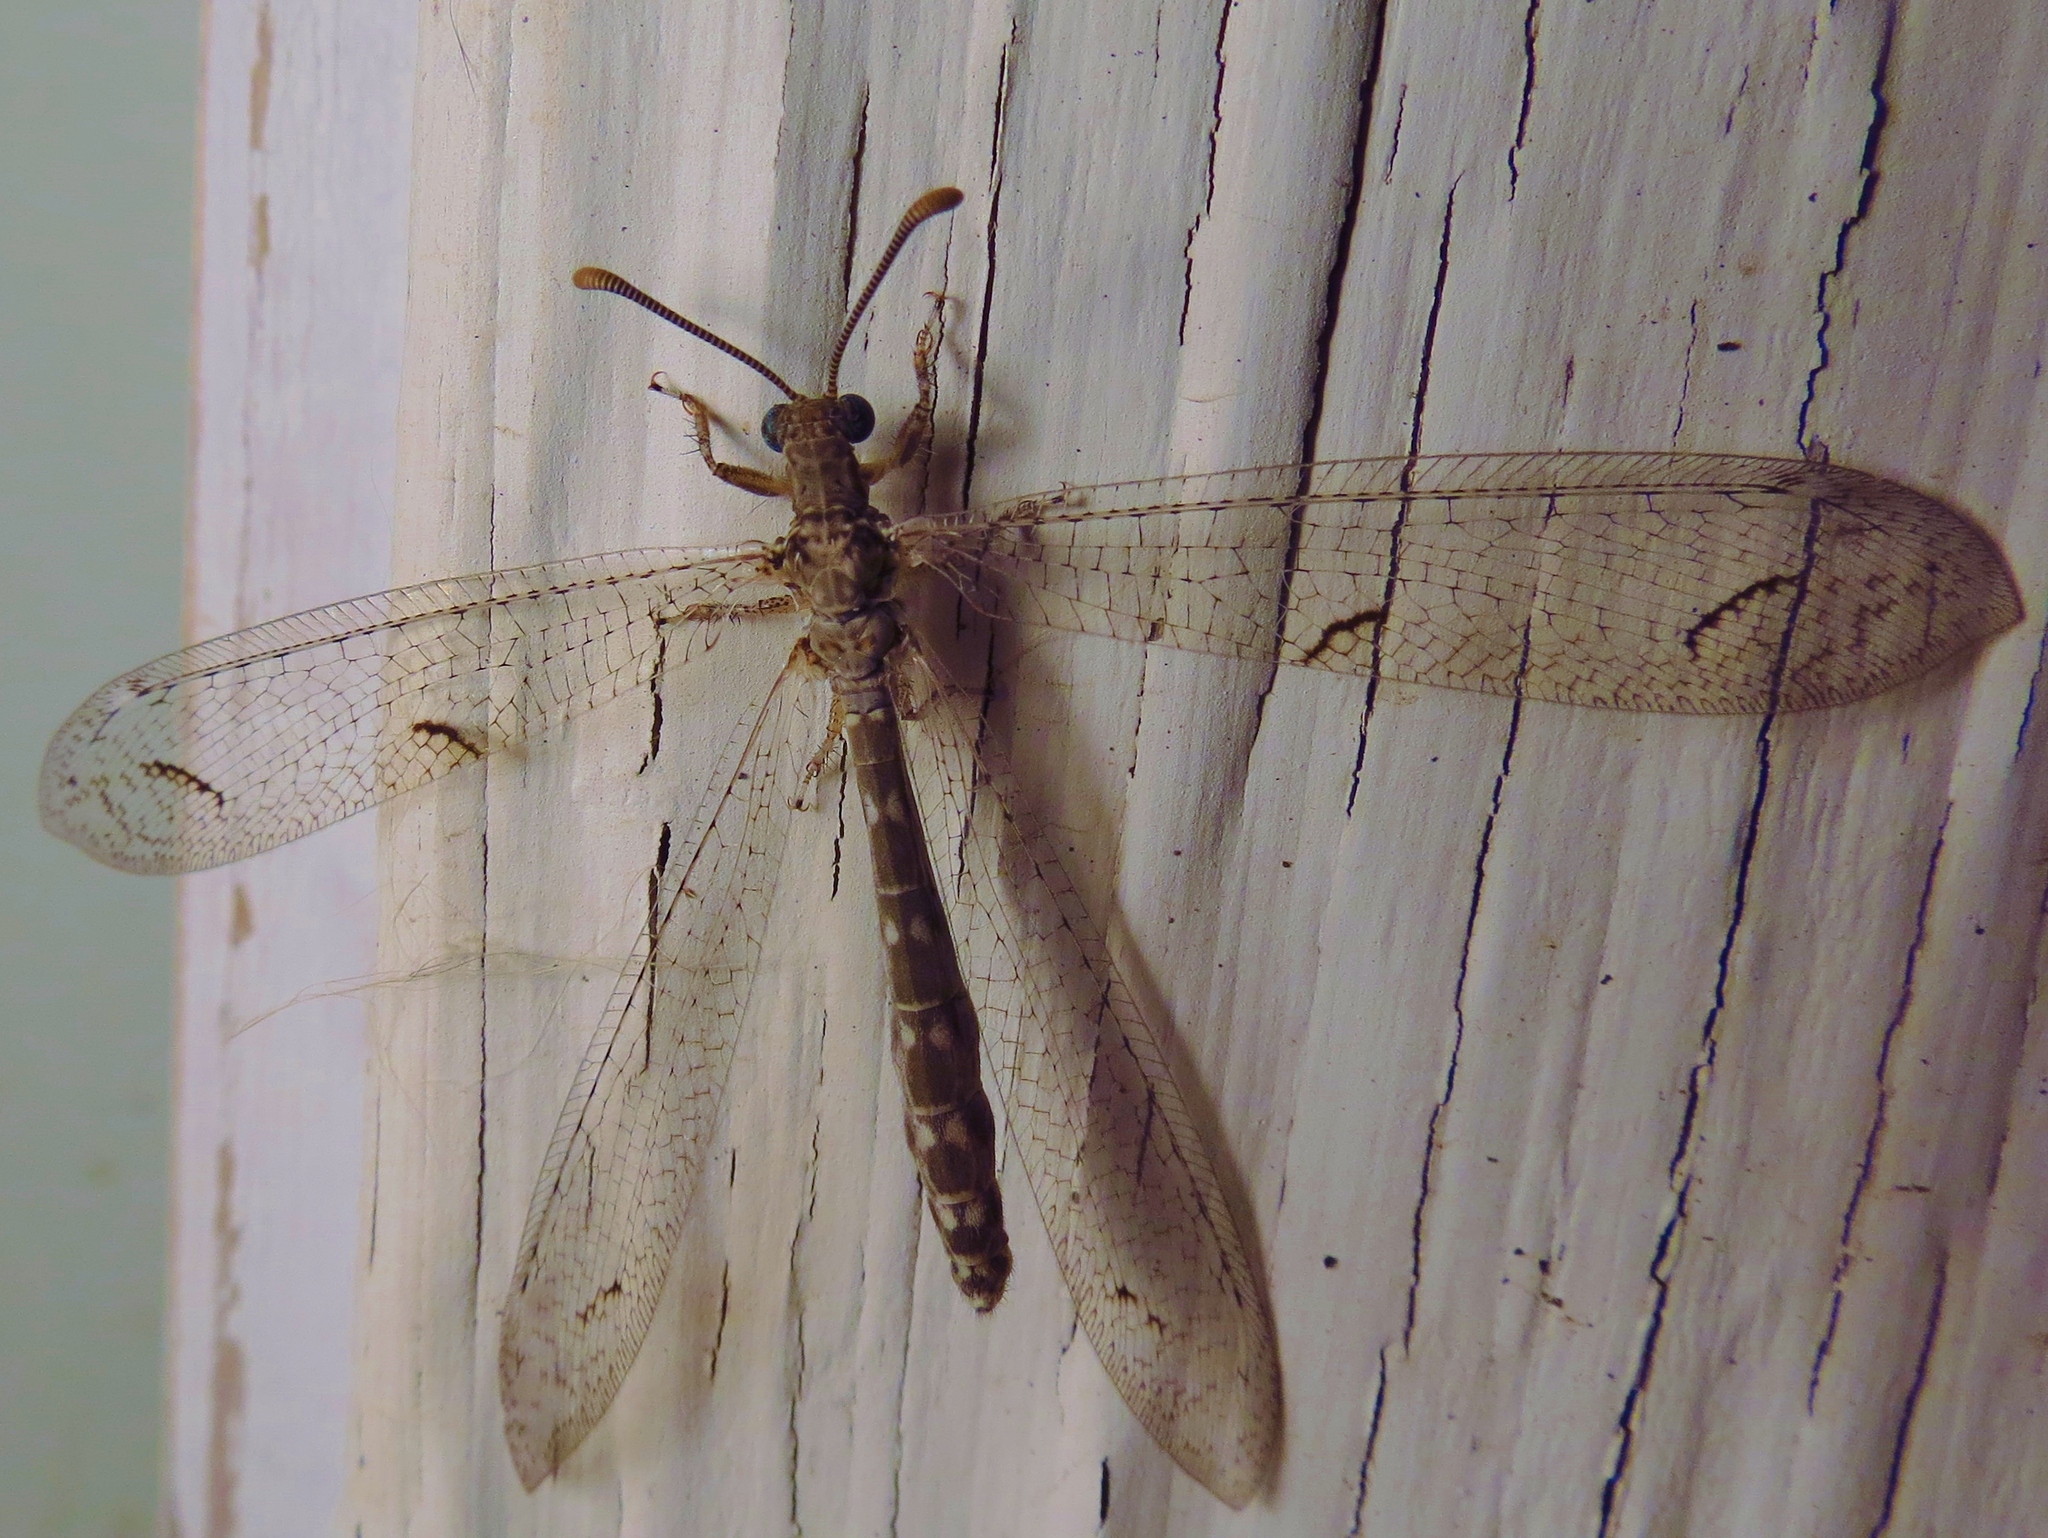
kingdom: Animalia
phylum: Arthropoda
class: Insecta
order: Neuroptera
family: Myrmeleontidae
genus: Euptilon
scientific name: Euptilon ornatum
